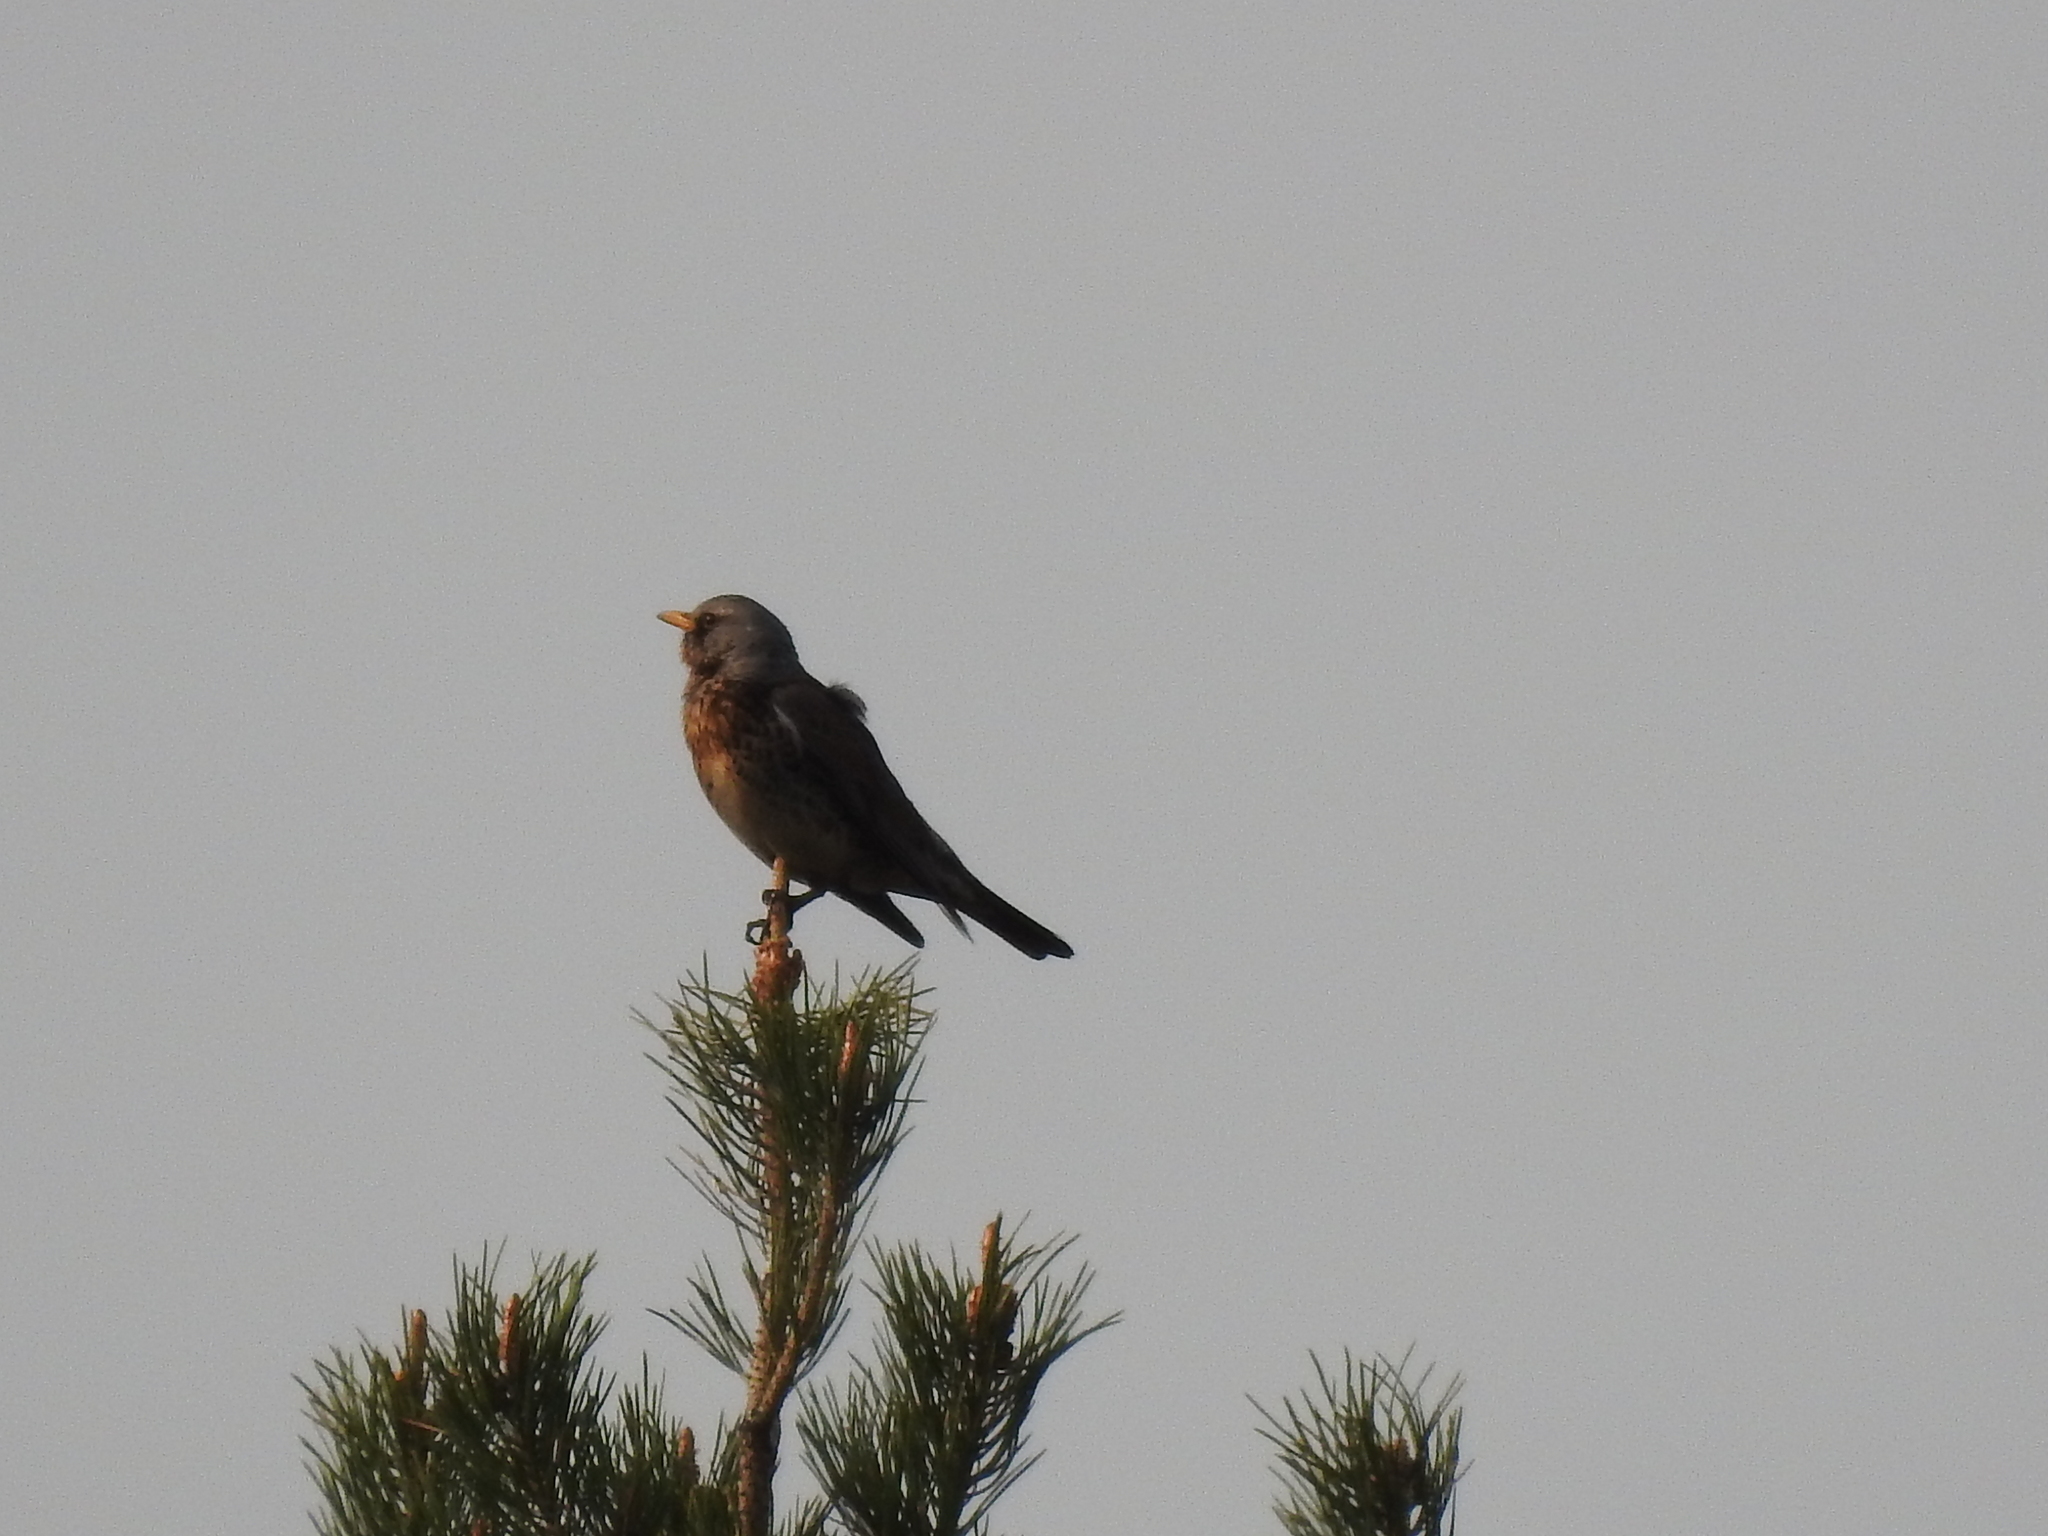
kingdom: Animalia
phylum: Chordata
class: Aves
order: Passeriformes
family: Turdidae
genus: Turdus
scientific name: Turdus pilaris
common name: Fieldfare
